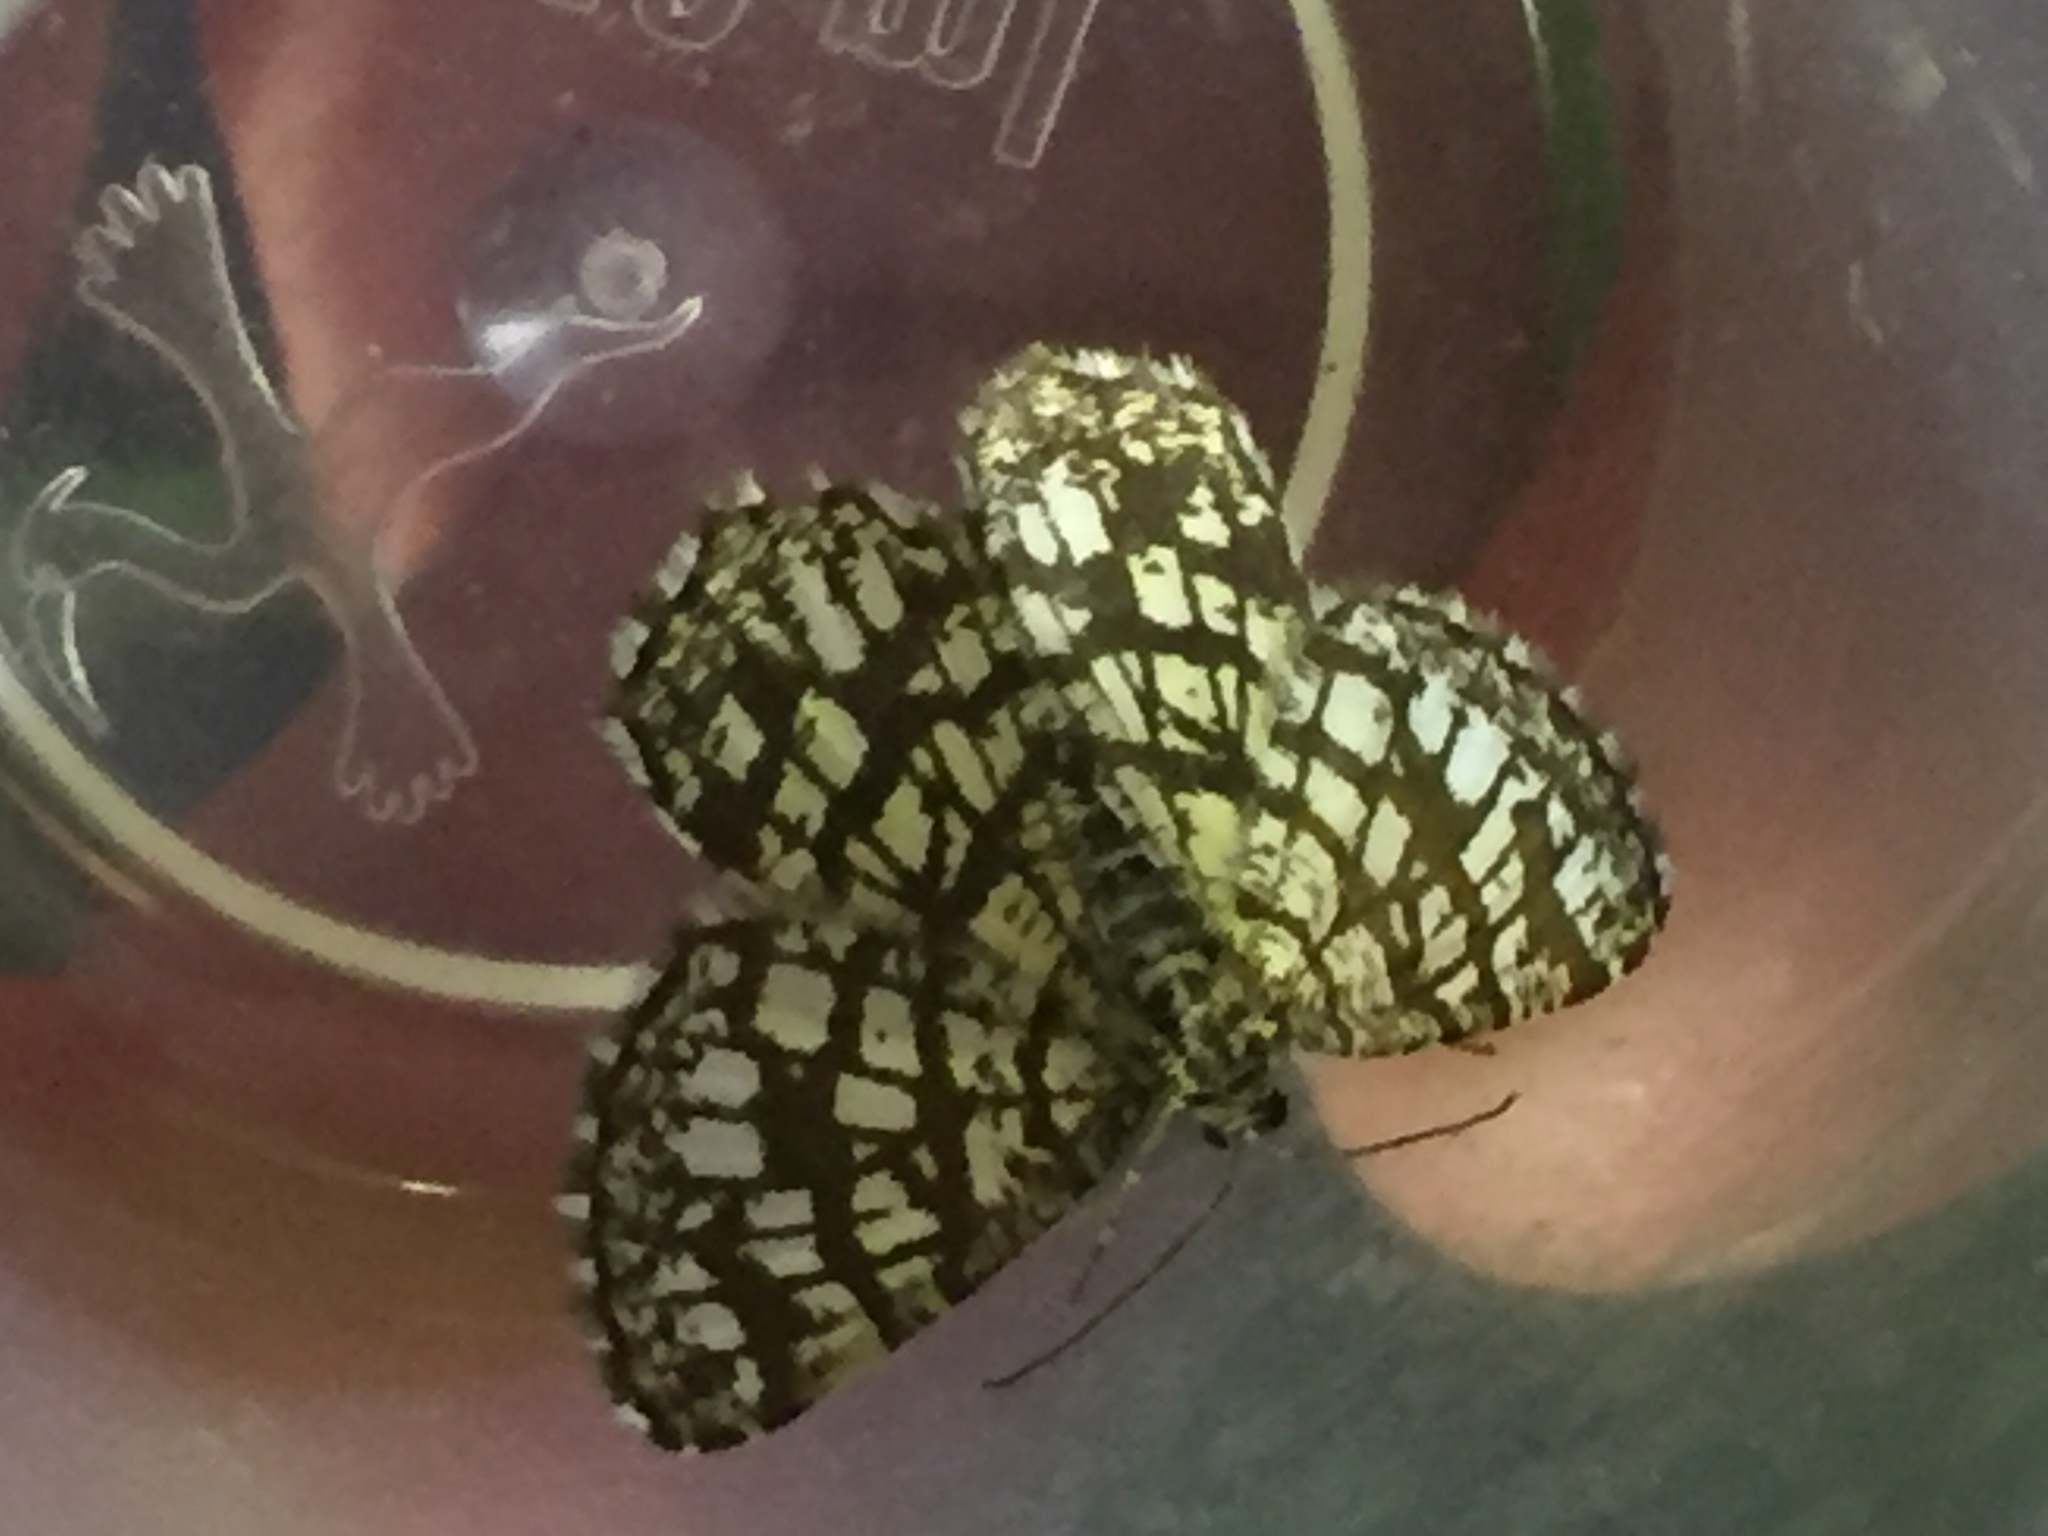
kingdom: Animalia
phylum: Arthropoda
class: Insecta
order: Lepidoptera
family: Geometridae
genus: Chiasmia
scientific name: Chiasmia clathrata
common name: Latticed heath
